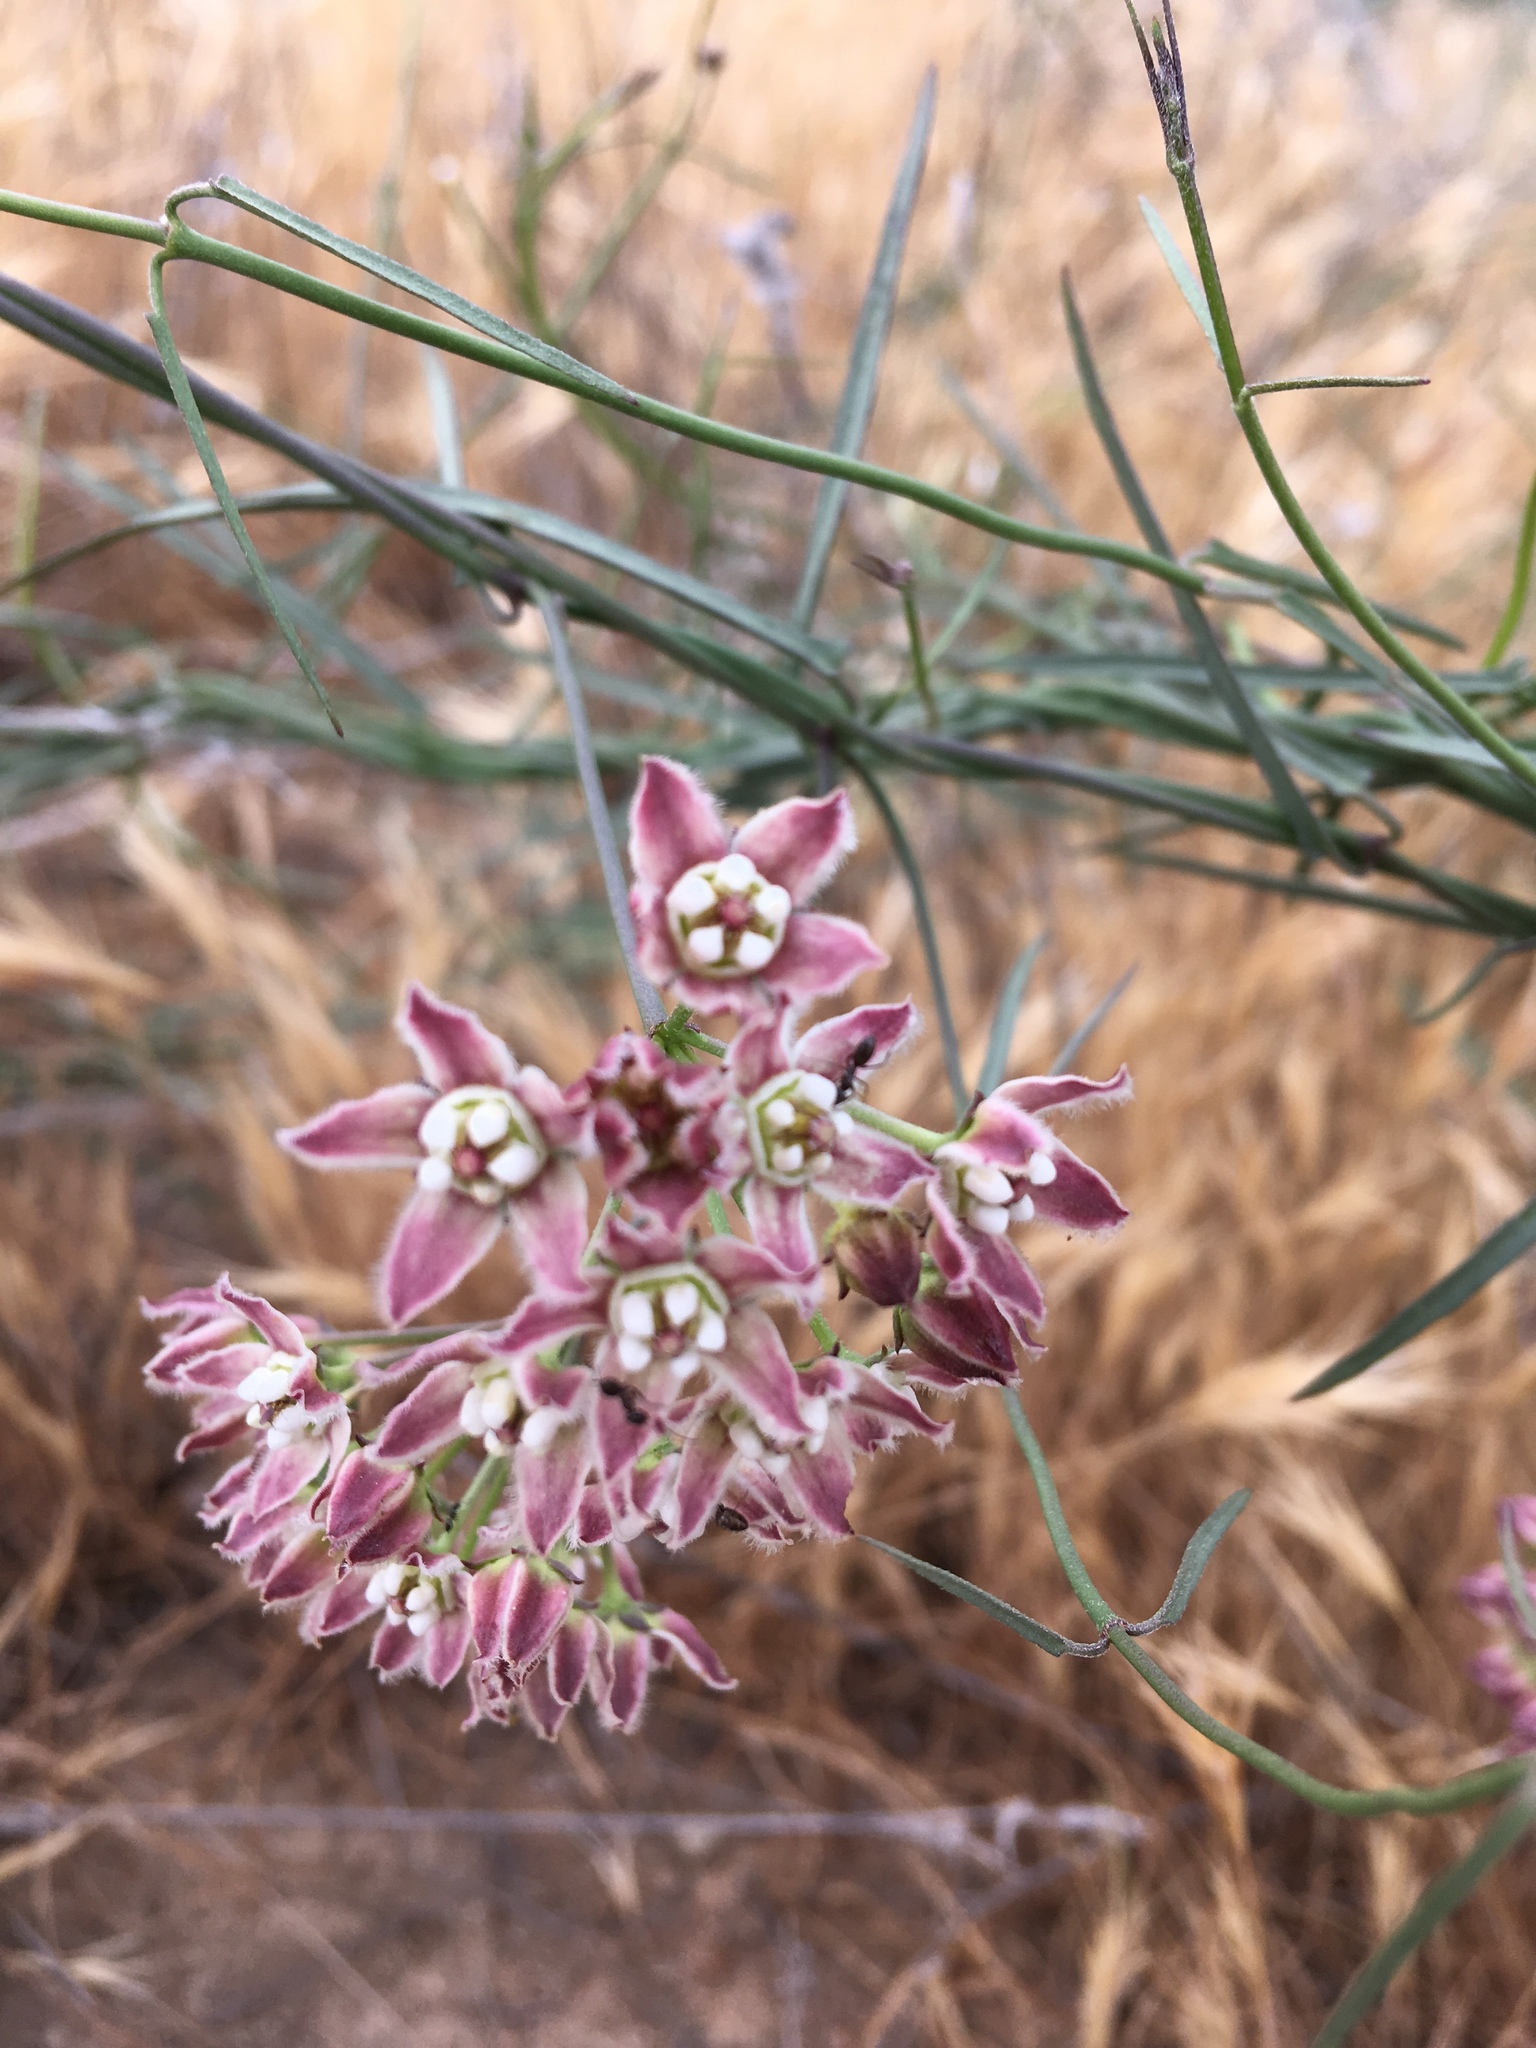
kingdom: Plantae
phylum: Tracheophyta
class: Magnoliopsida
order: Gentianales
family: Apocynaceae
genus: Funastrum
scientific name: Funastrum heterophyllum
